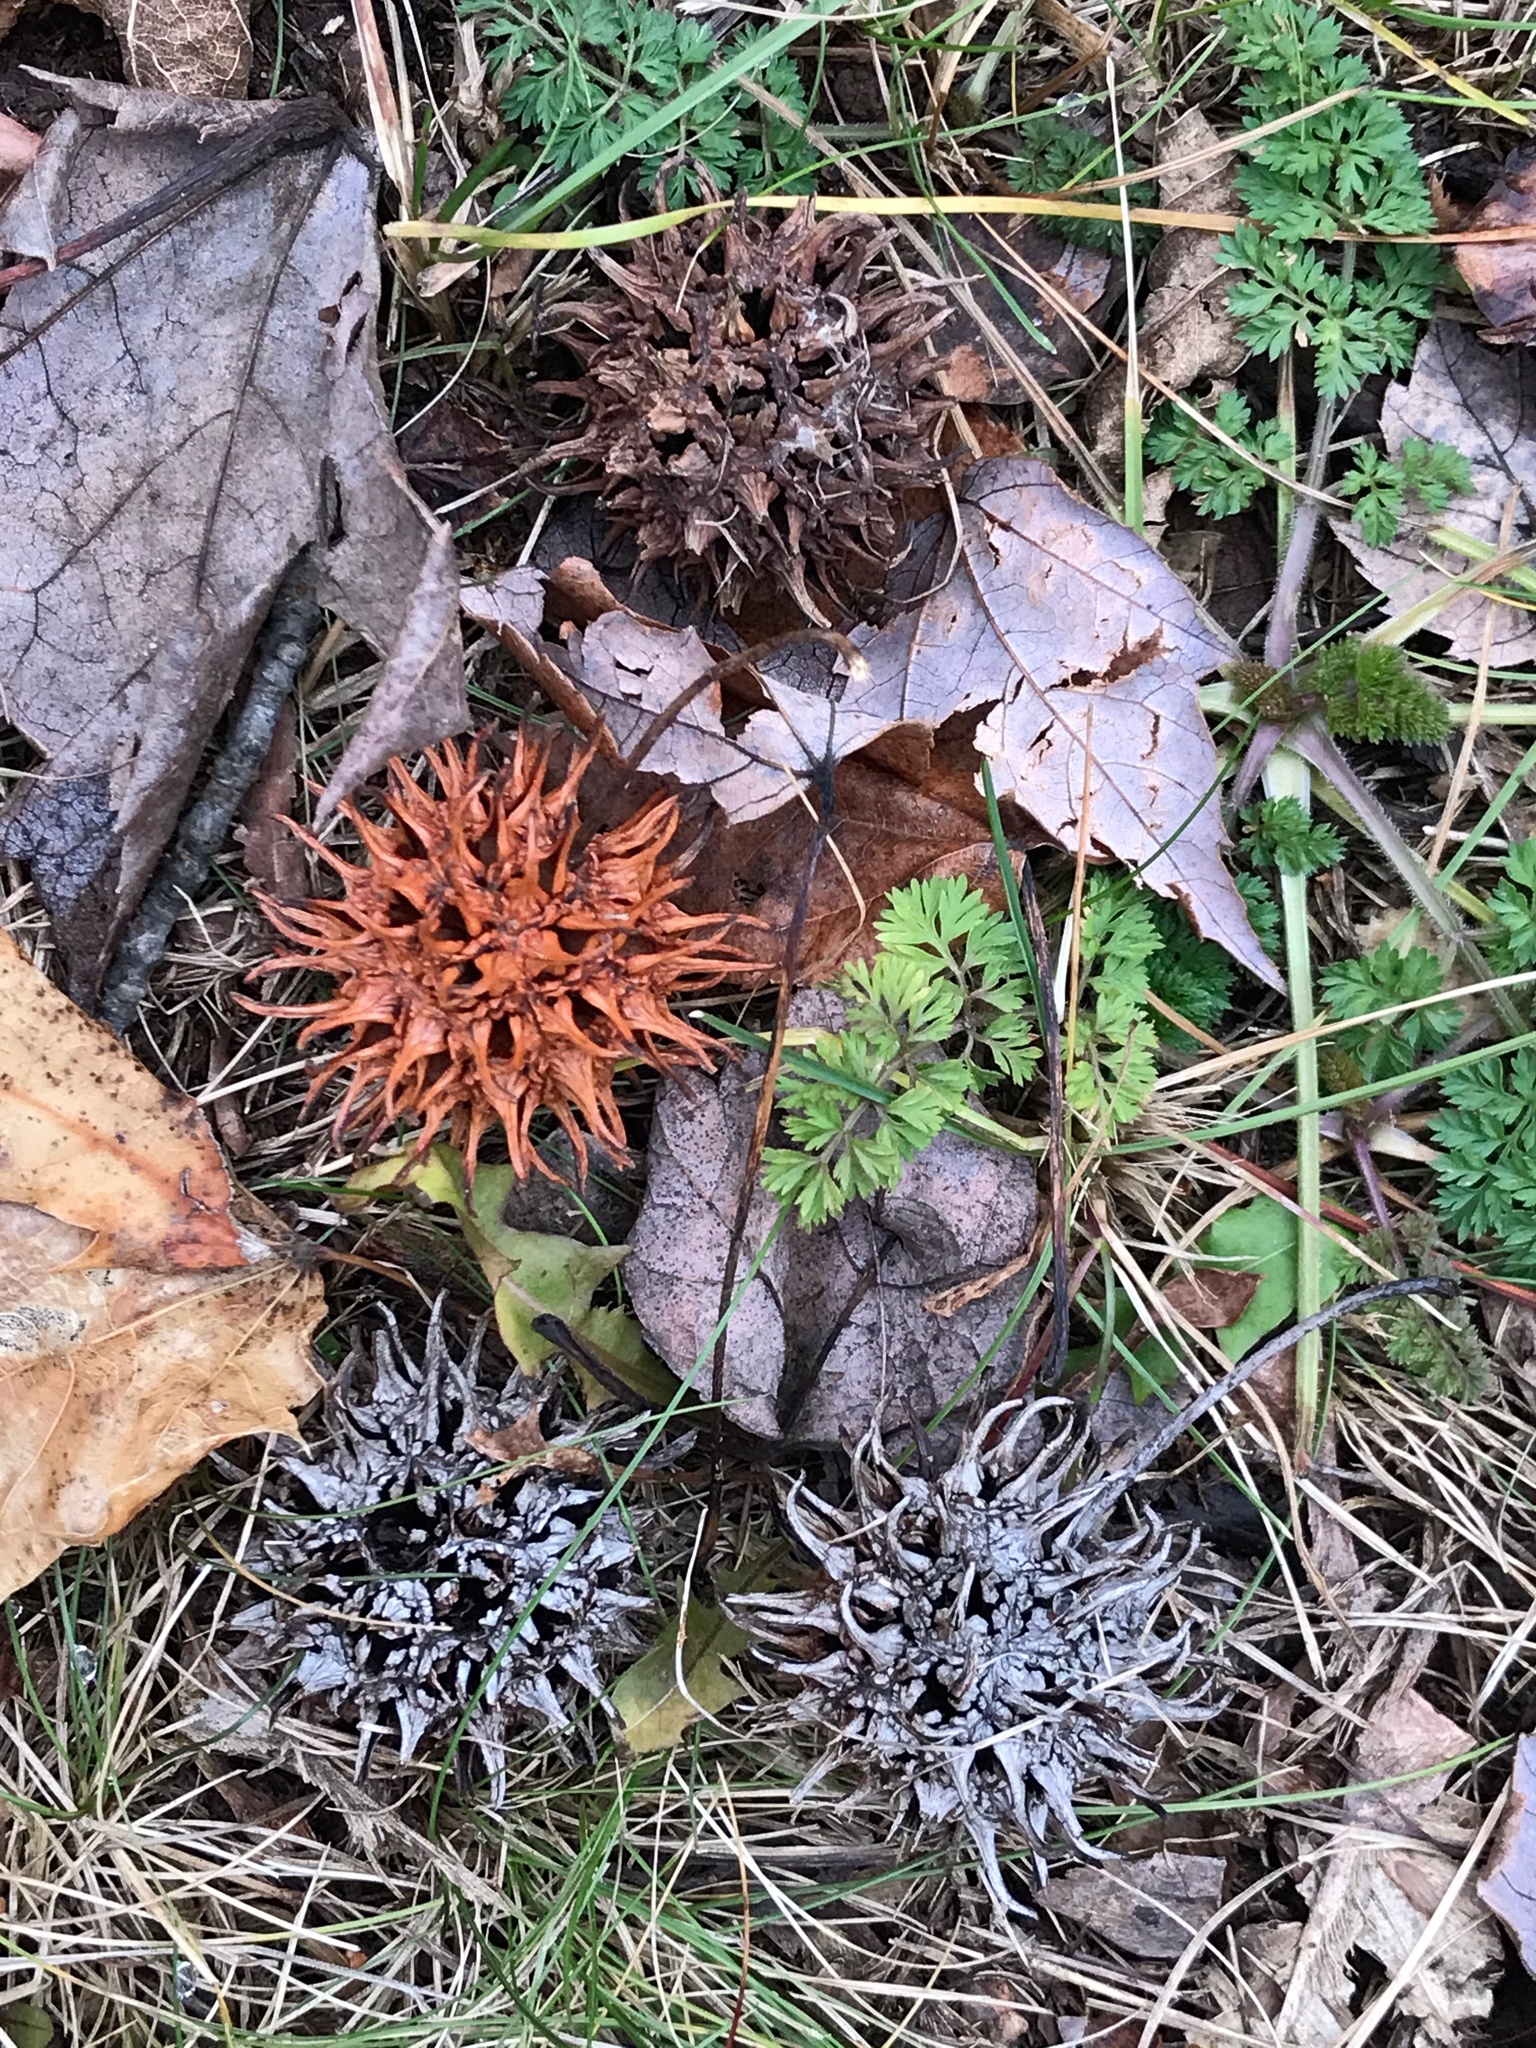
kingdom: Plantae
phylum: Tracheophyta
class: Magnoliopsida
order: Saxifragales
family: Altingiaceae
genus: Liquidambar
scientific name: Liquidambar styraciflua
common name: Sweet gum
